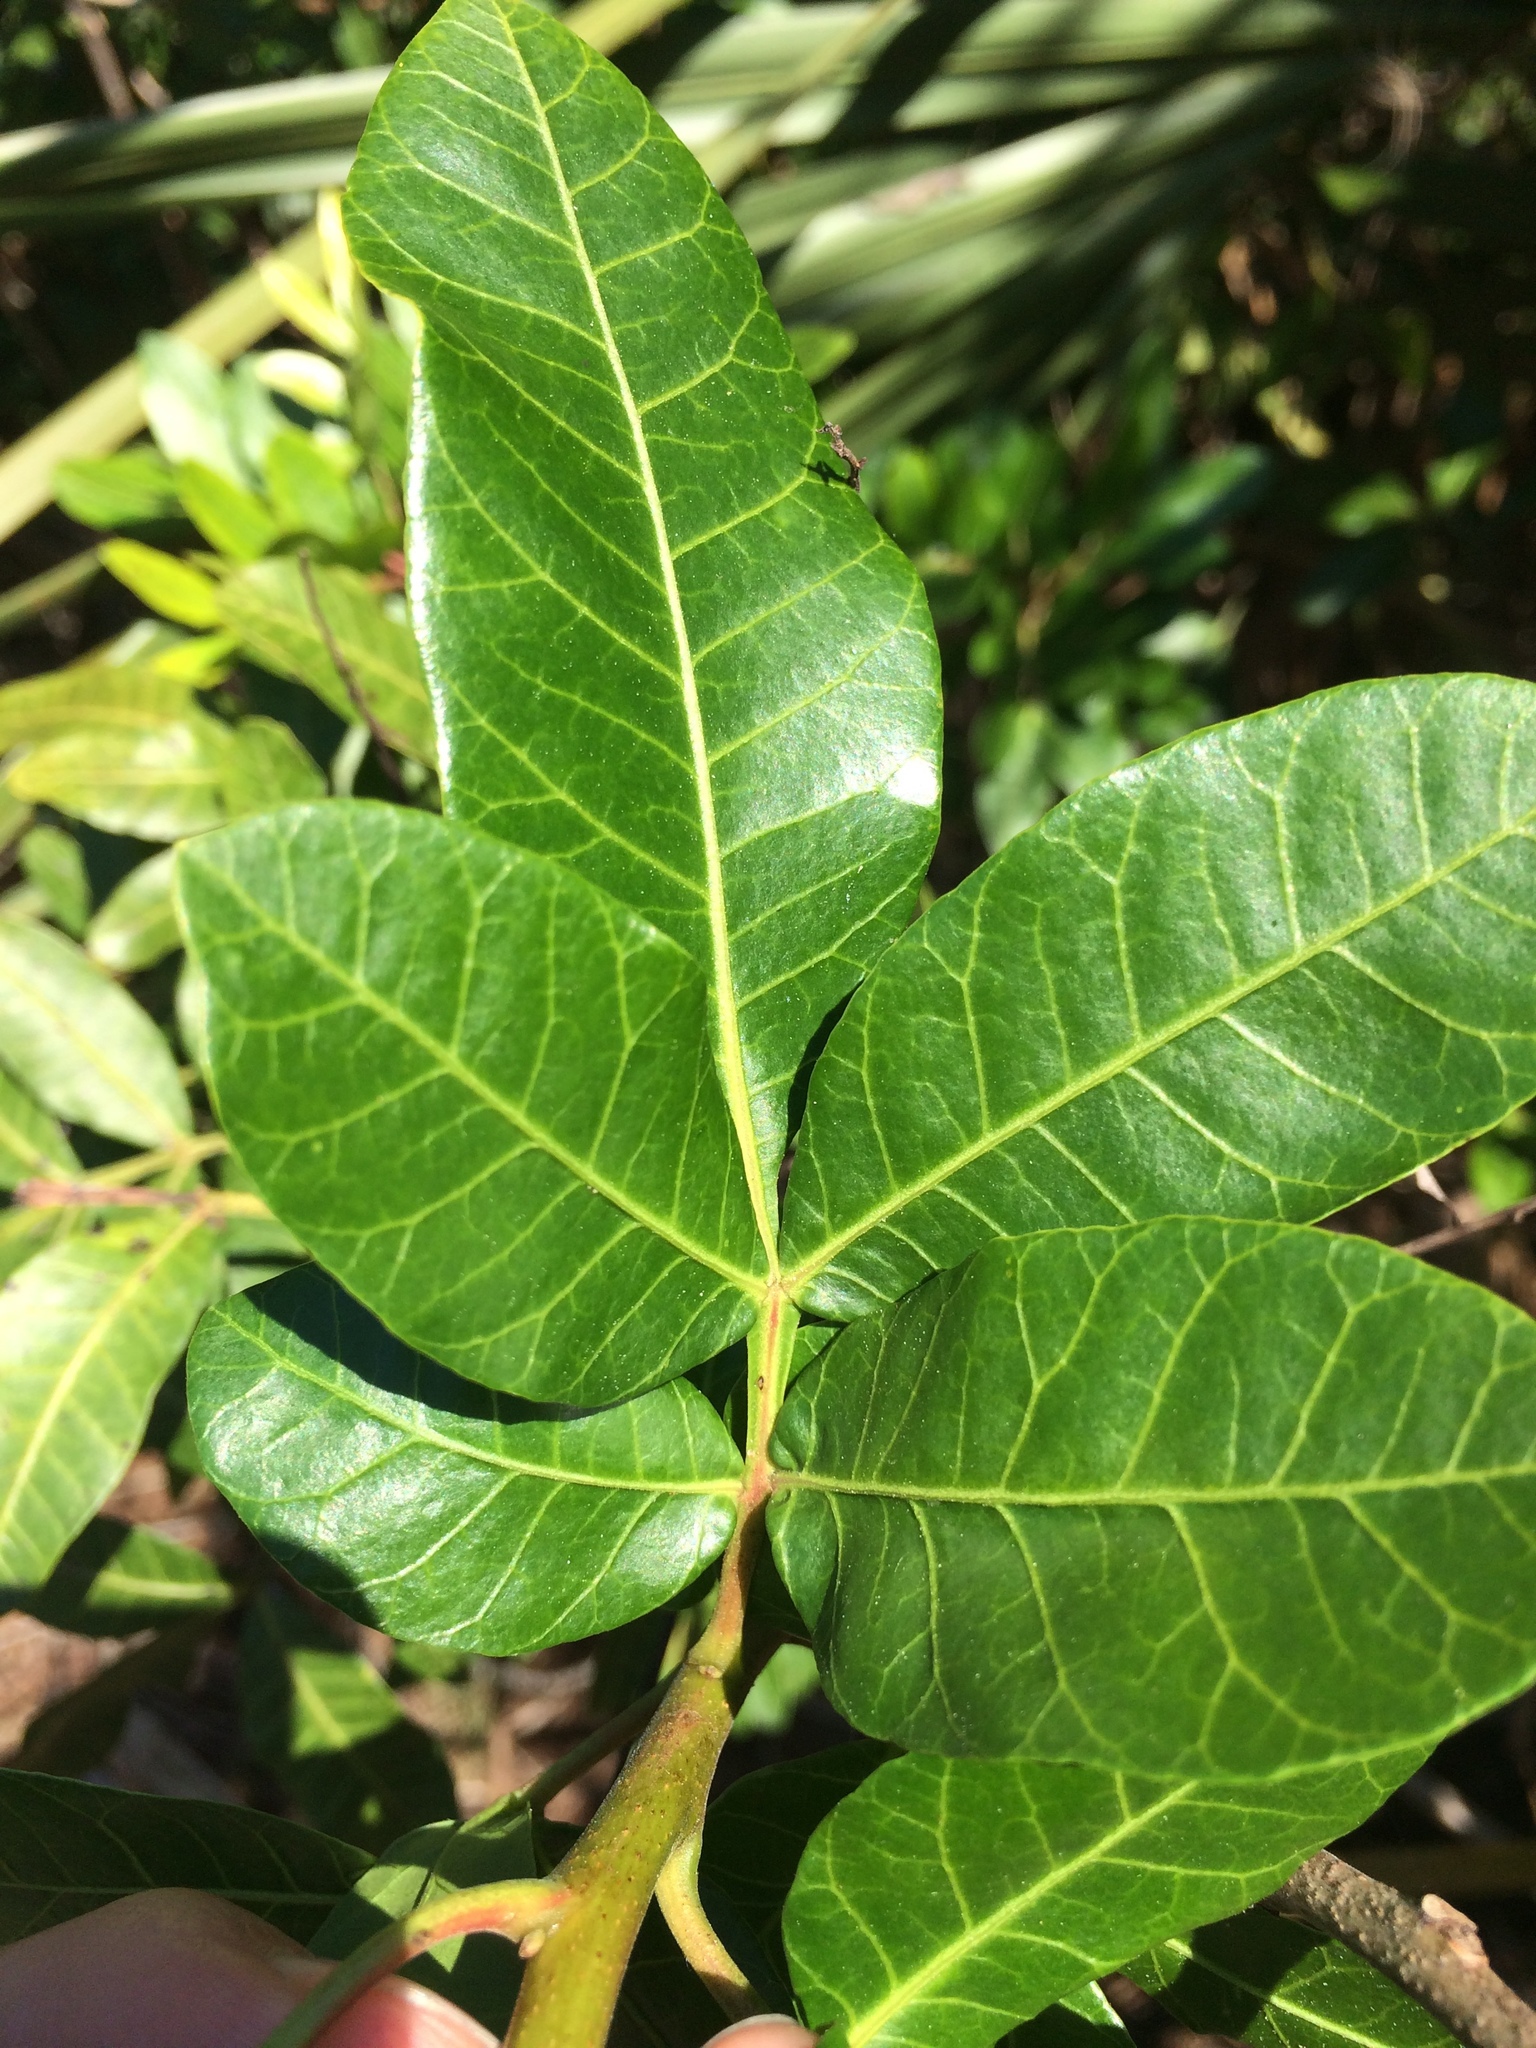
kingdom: Plantae
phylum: Tracheophyta
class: Magnoliopsida
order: Sapindales
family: Anacardiaceae
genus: Schinus
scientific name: Schinus terebinthifolia
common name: Brazilian peppertree
